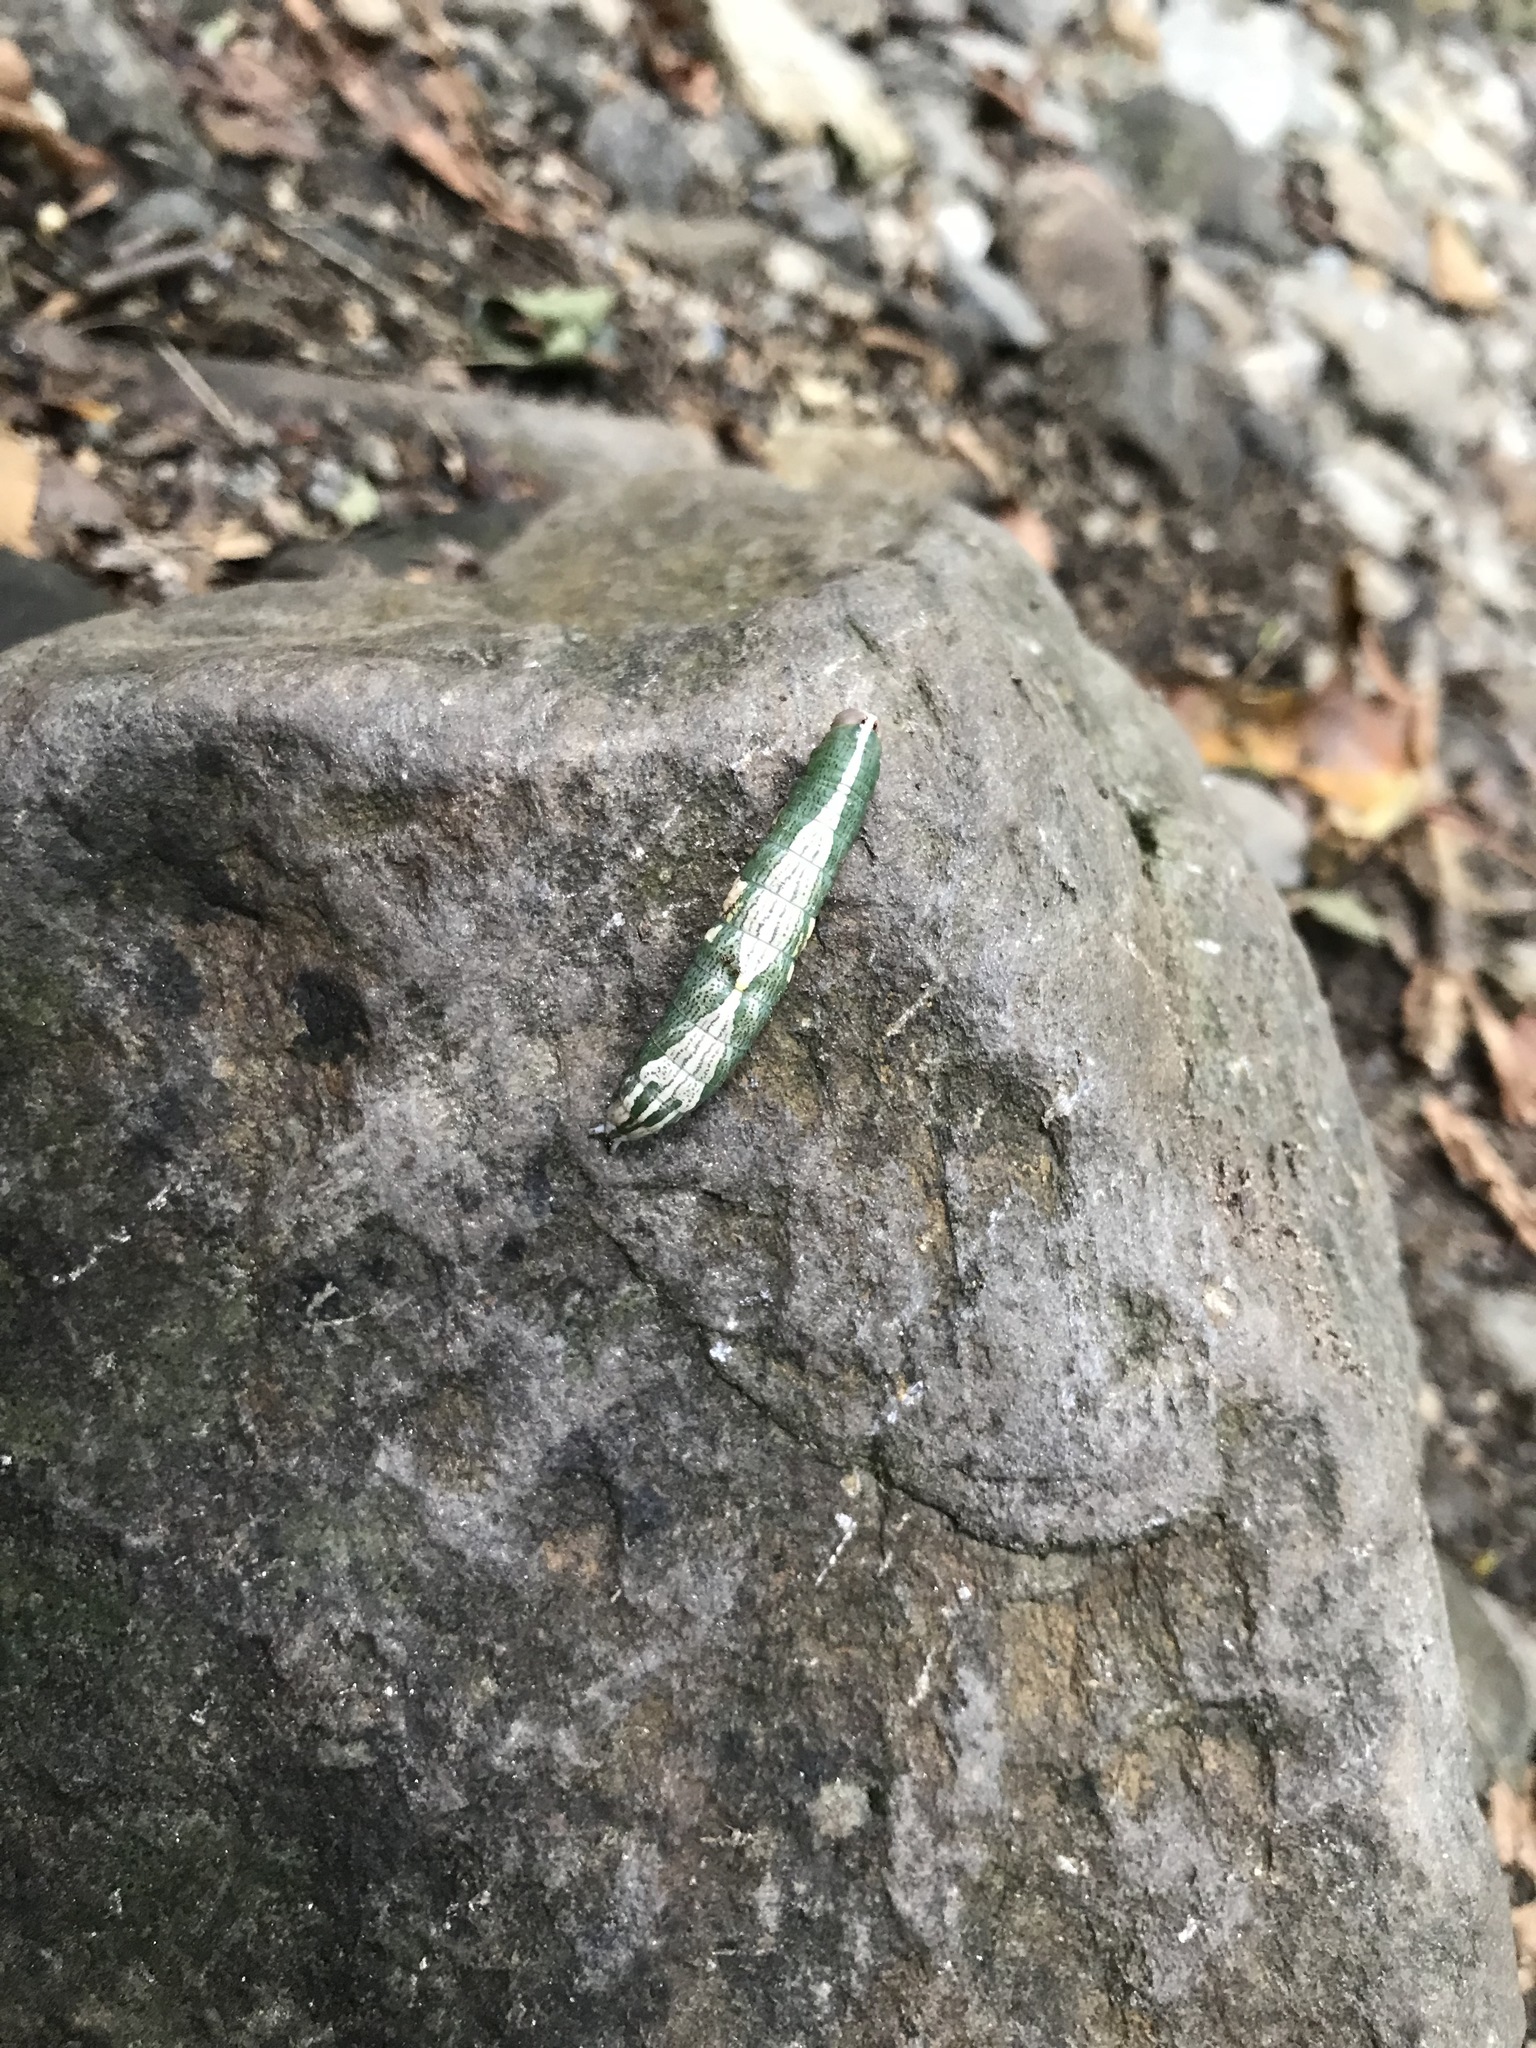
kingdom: Animalia
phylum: Arthropoda
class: Insecta
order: Lepidoptera
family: Notodontidae
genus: Disphragis
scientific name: Disphragis Cecrita biundata
